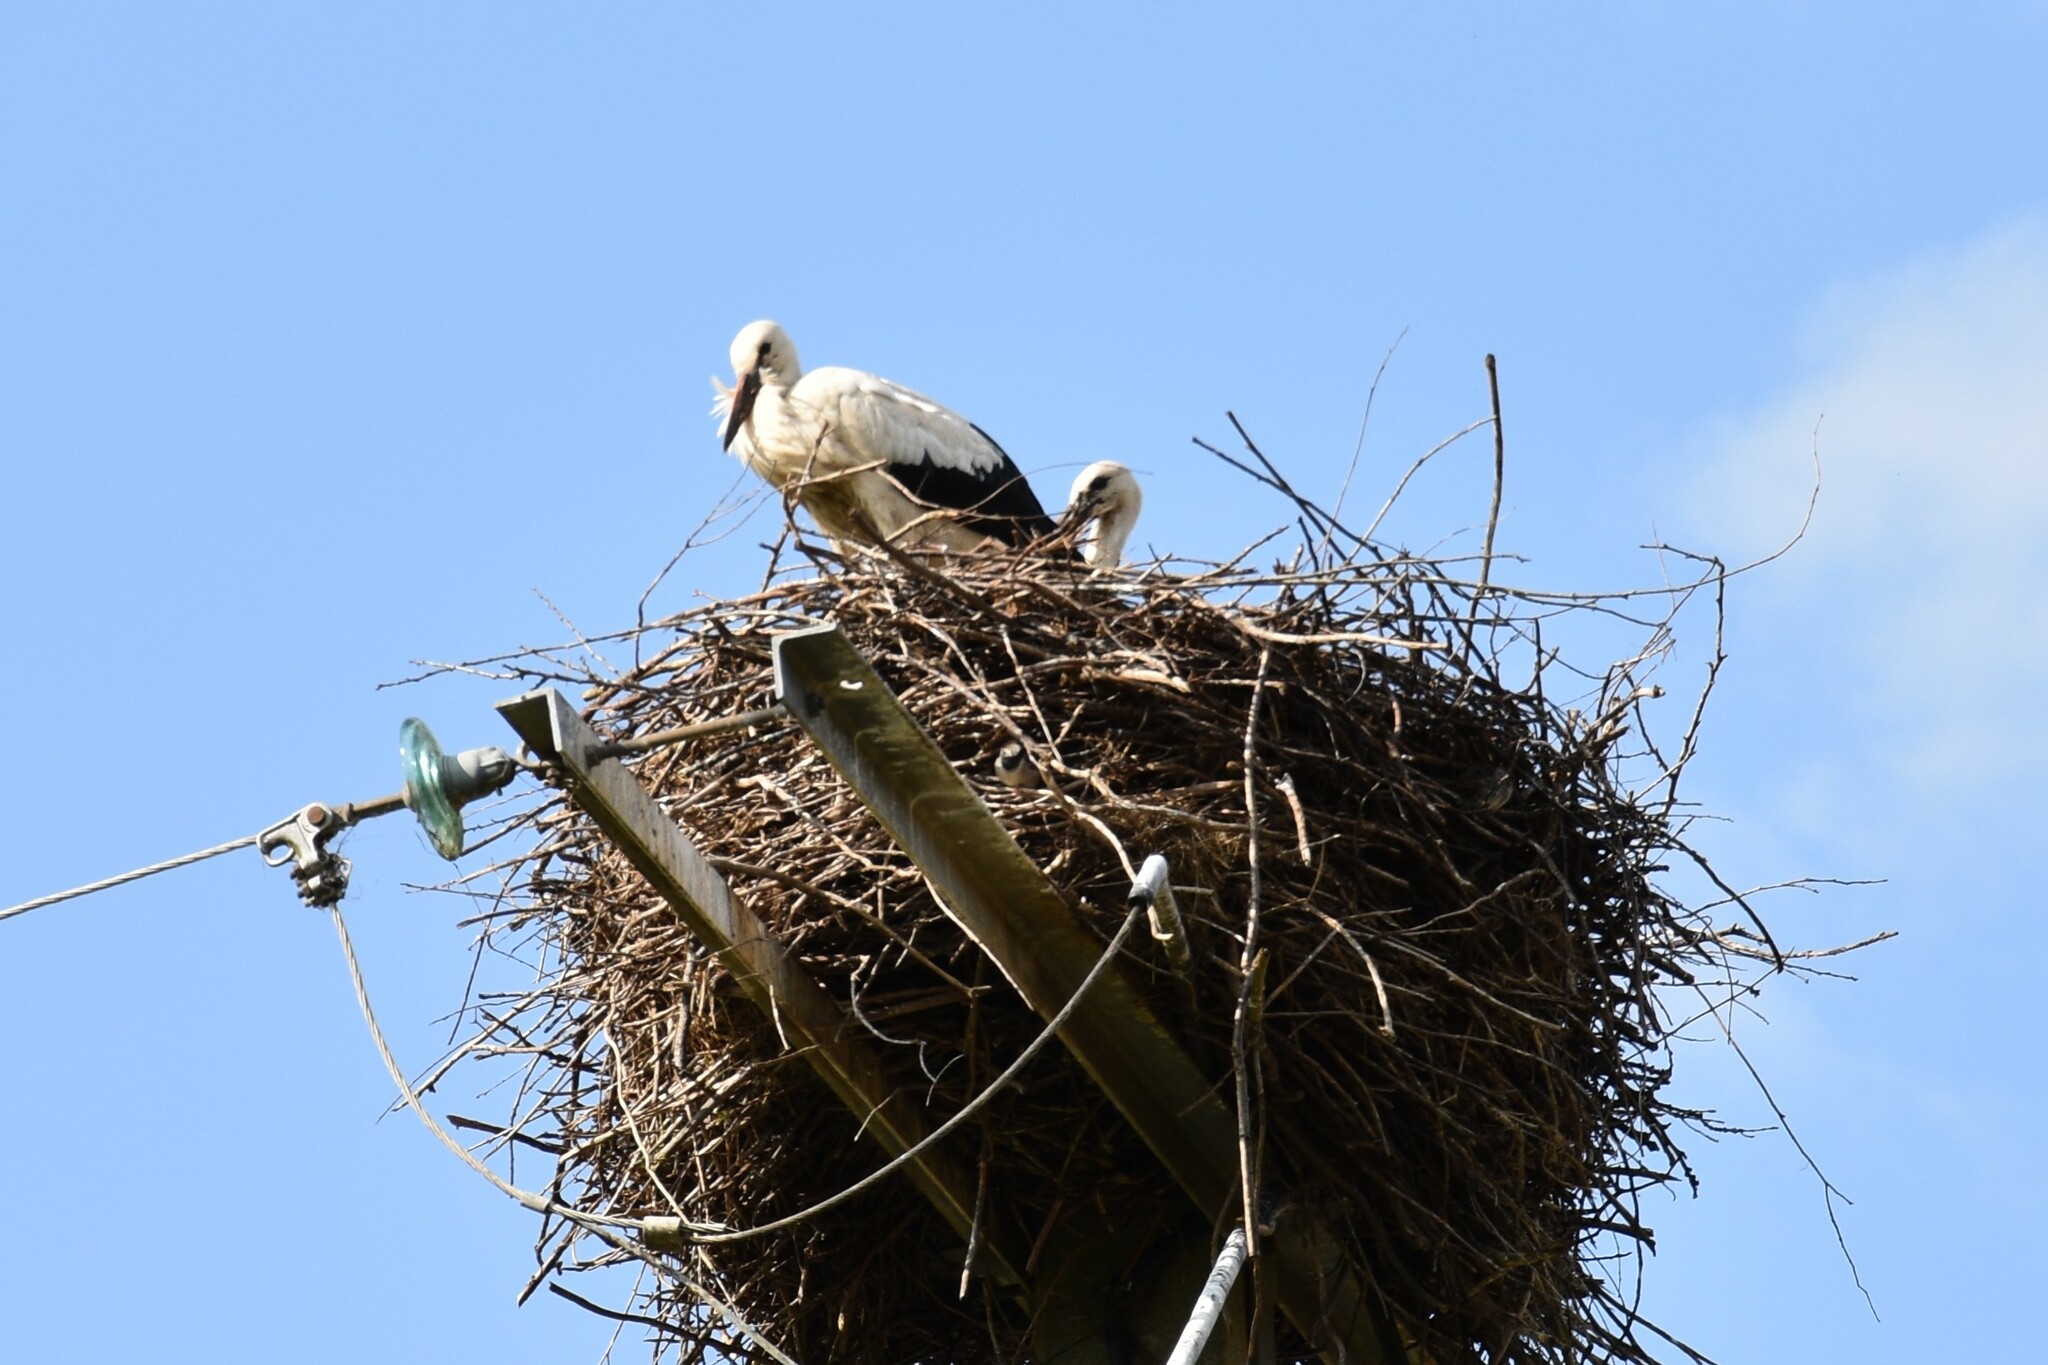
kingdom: Animalia
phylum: Chordata
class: Aves
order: Ciconiiformes
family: Ciconiidae
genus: Ciconia
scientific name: Ciconia ciconia
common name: White stork
